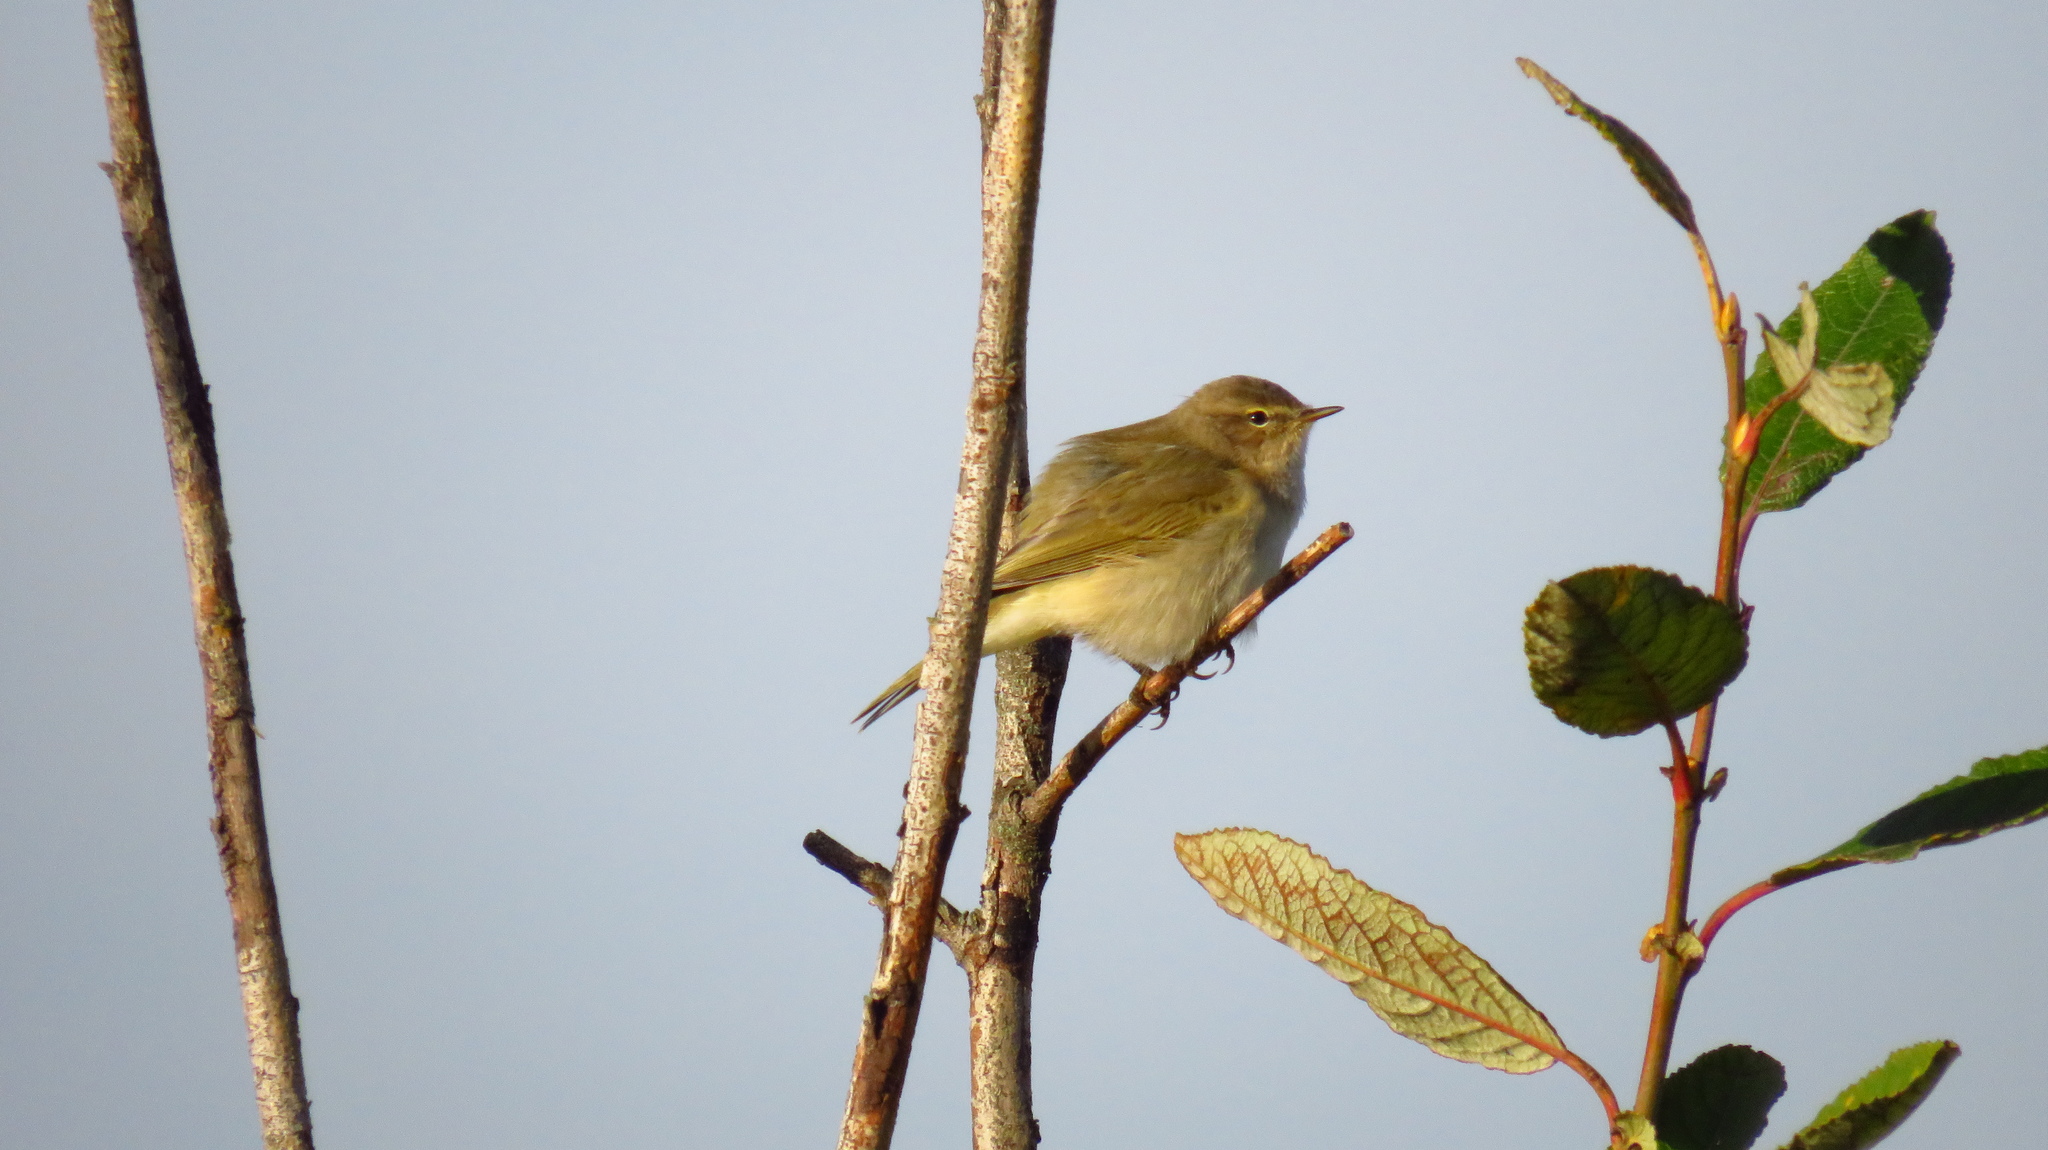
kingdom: Animalia
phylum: Chordata
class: Aves
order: Passeriformes
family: Phylloscopidae
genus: Phylloscopus
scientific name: Phylloscopus collybita
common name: Common chiffchaff
